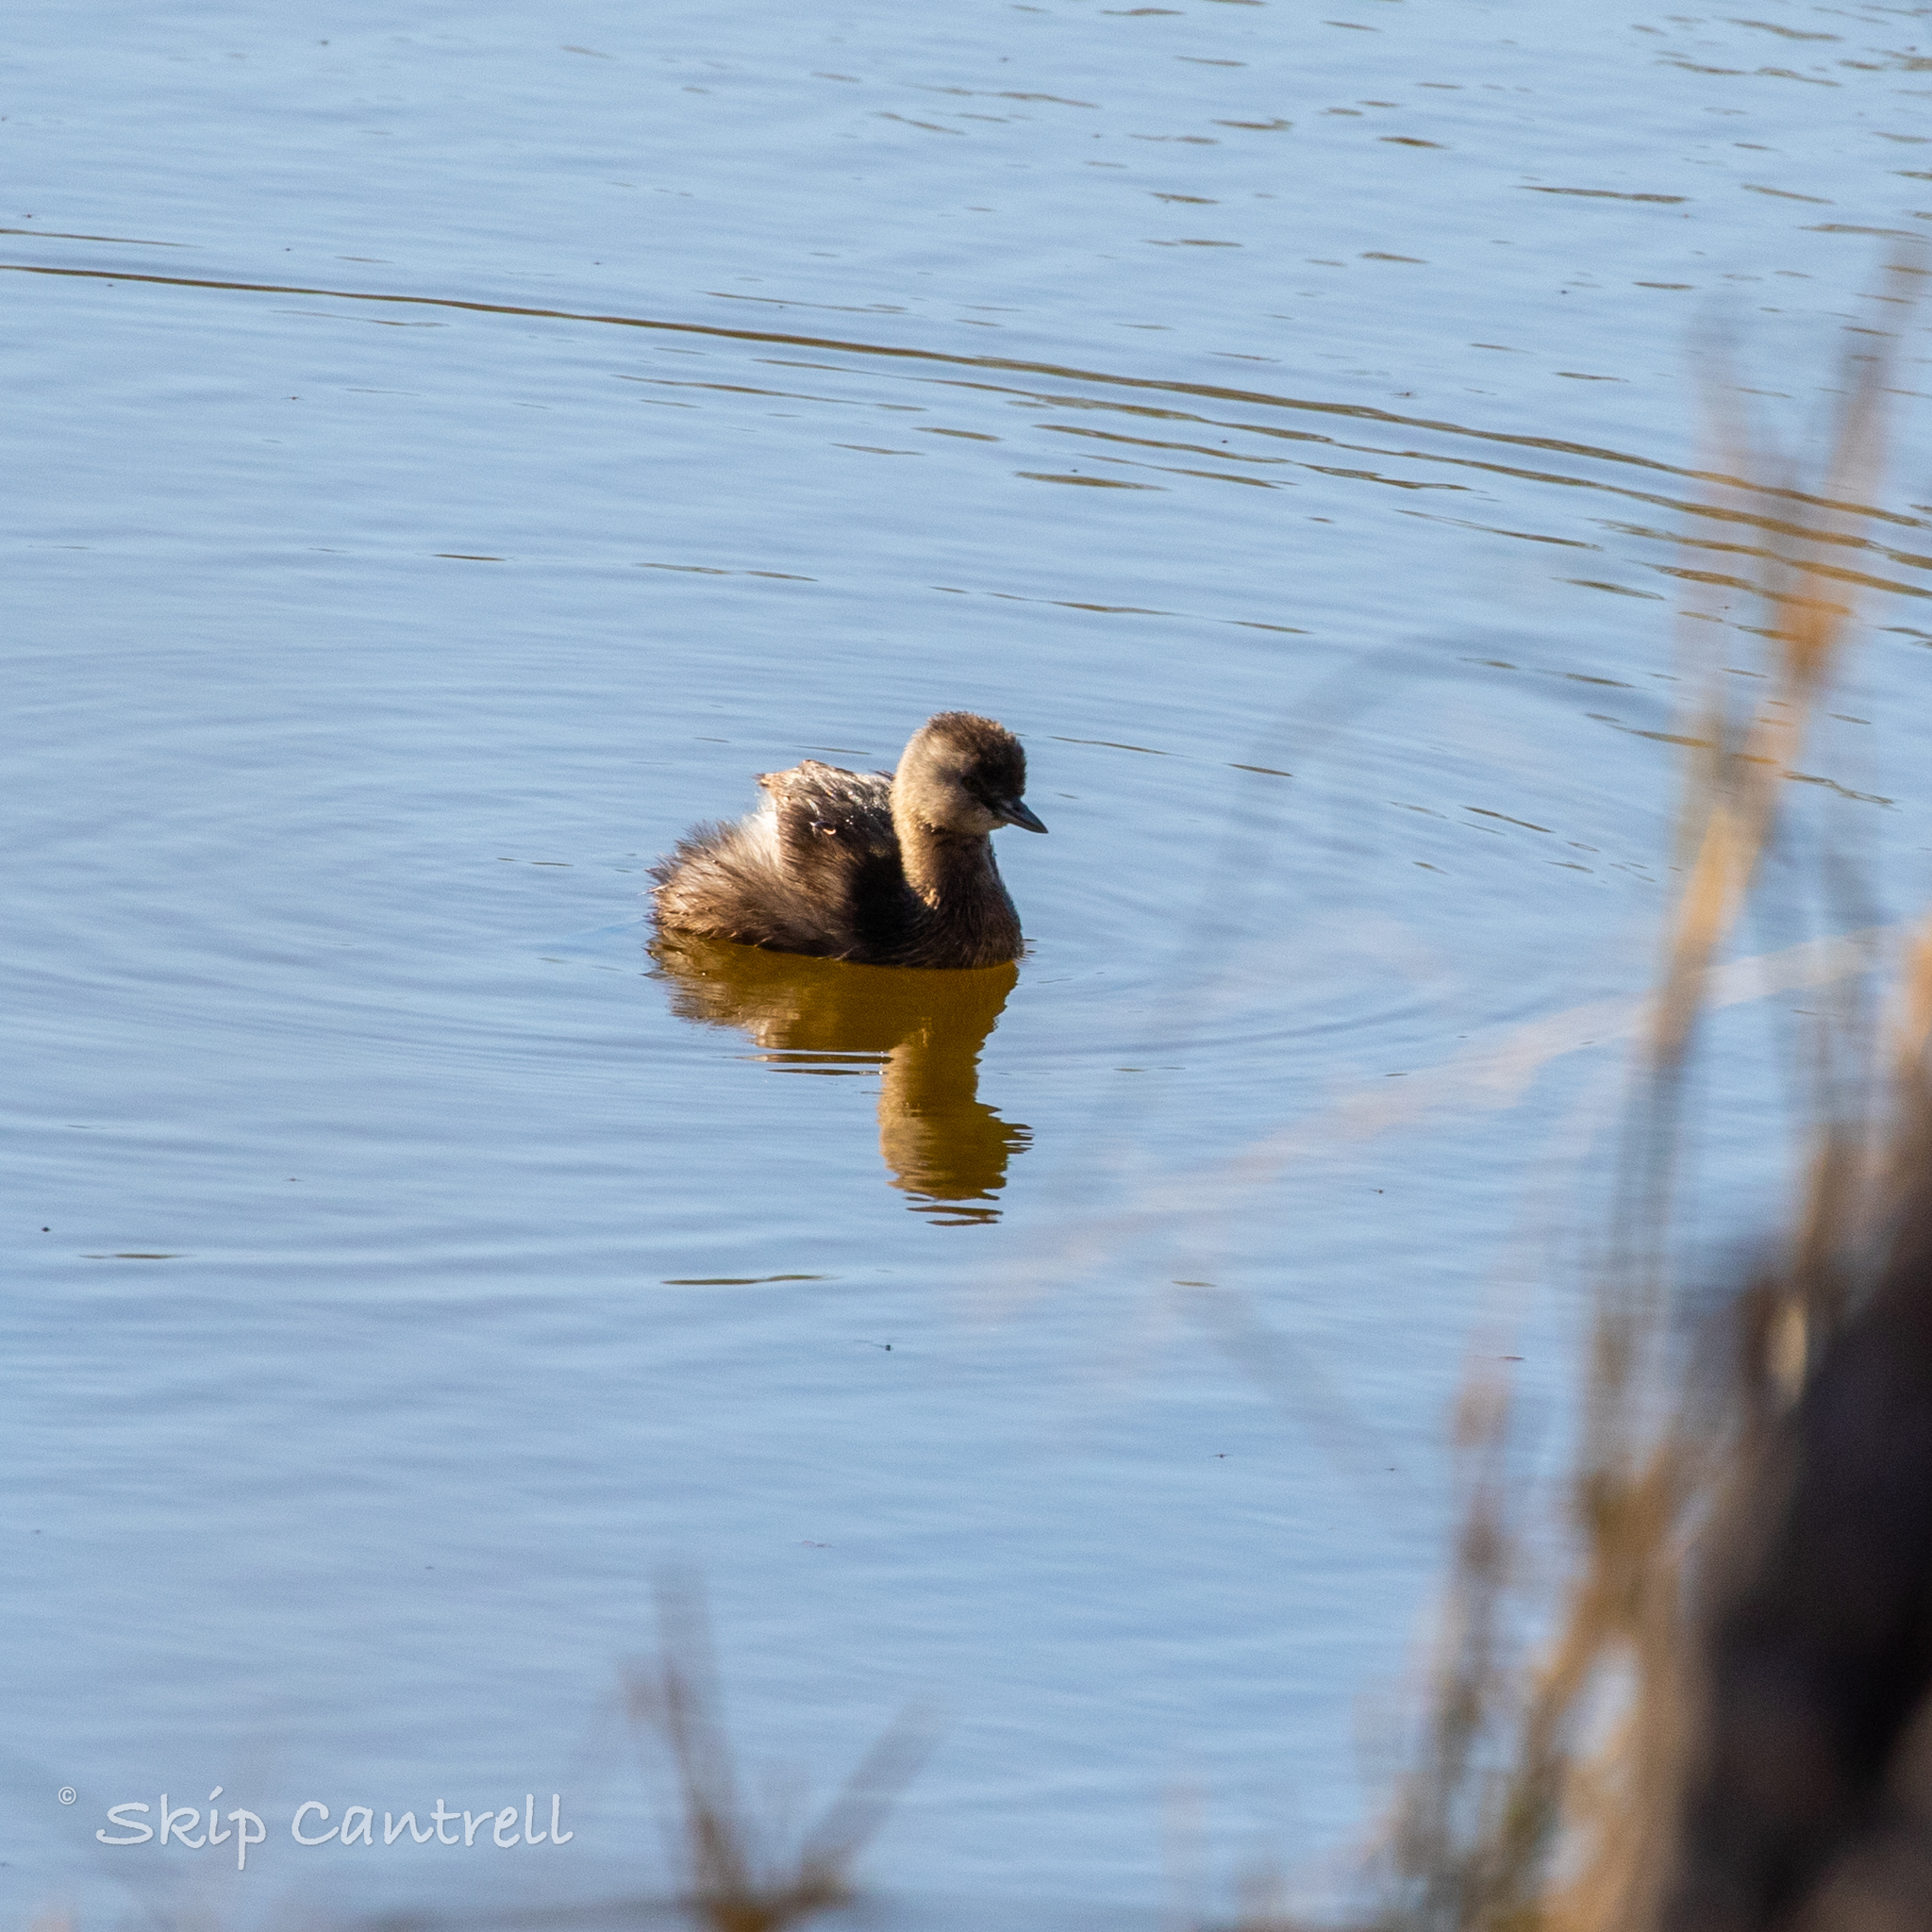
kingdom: Animalia
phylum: Chordata
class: Aves
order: Podicipediformes
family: Podicipedidae
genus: Tachybaptus
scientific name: Tachybaptus dominicus
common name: Least grebe
